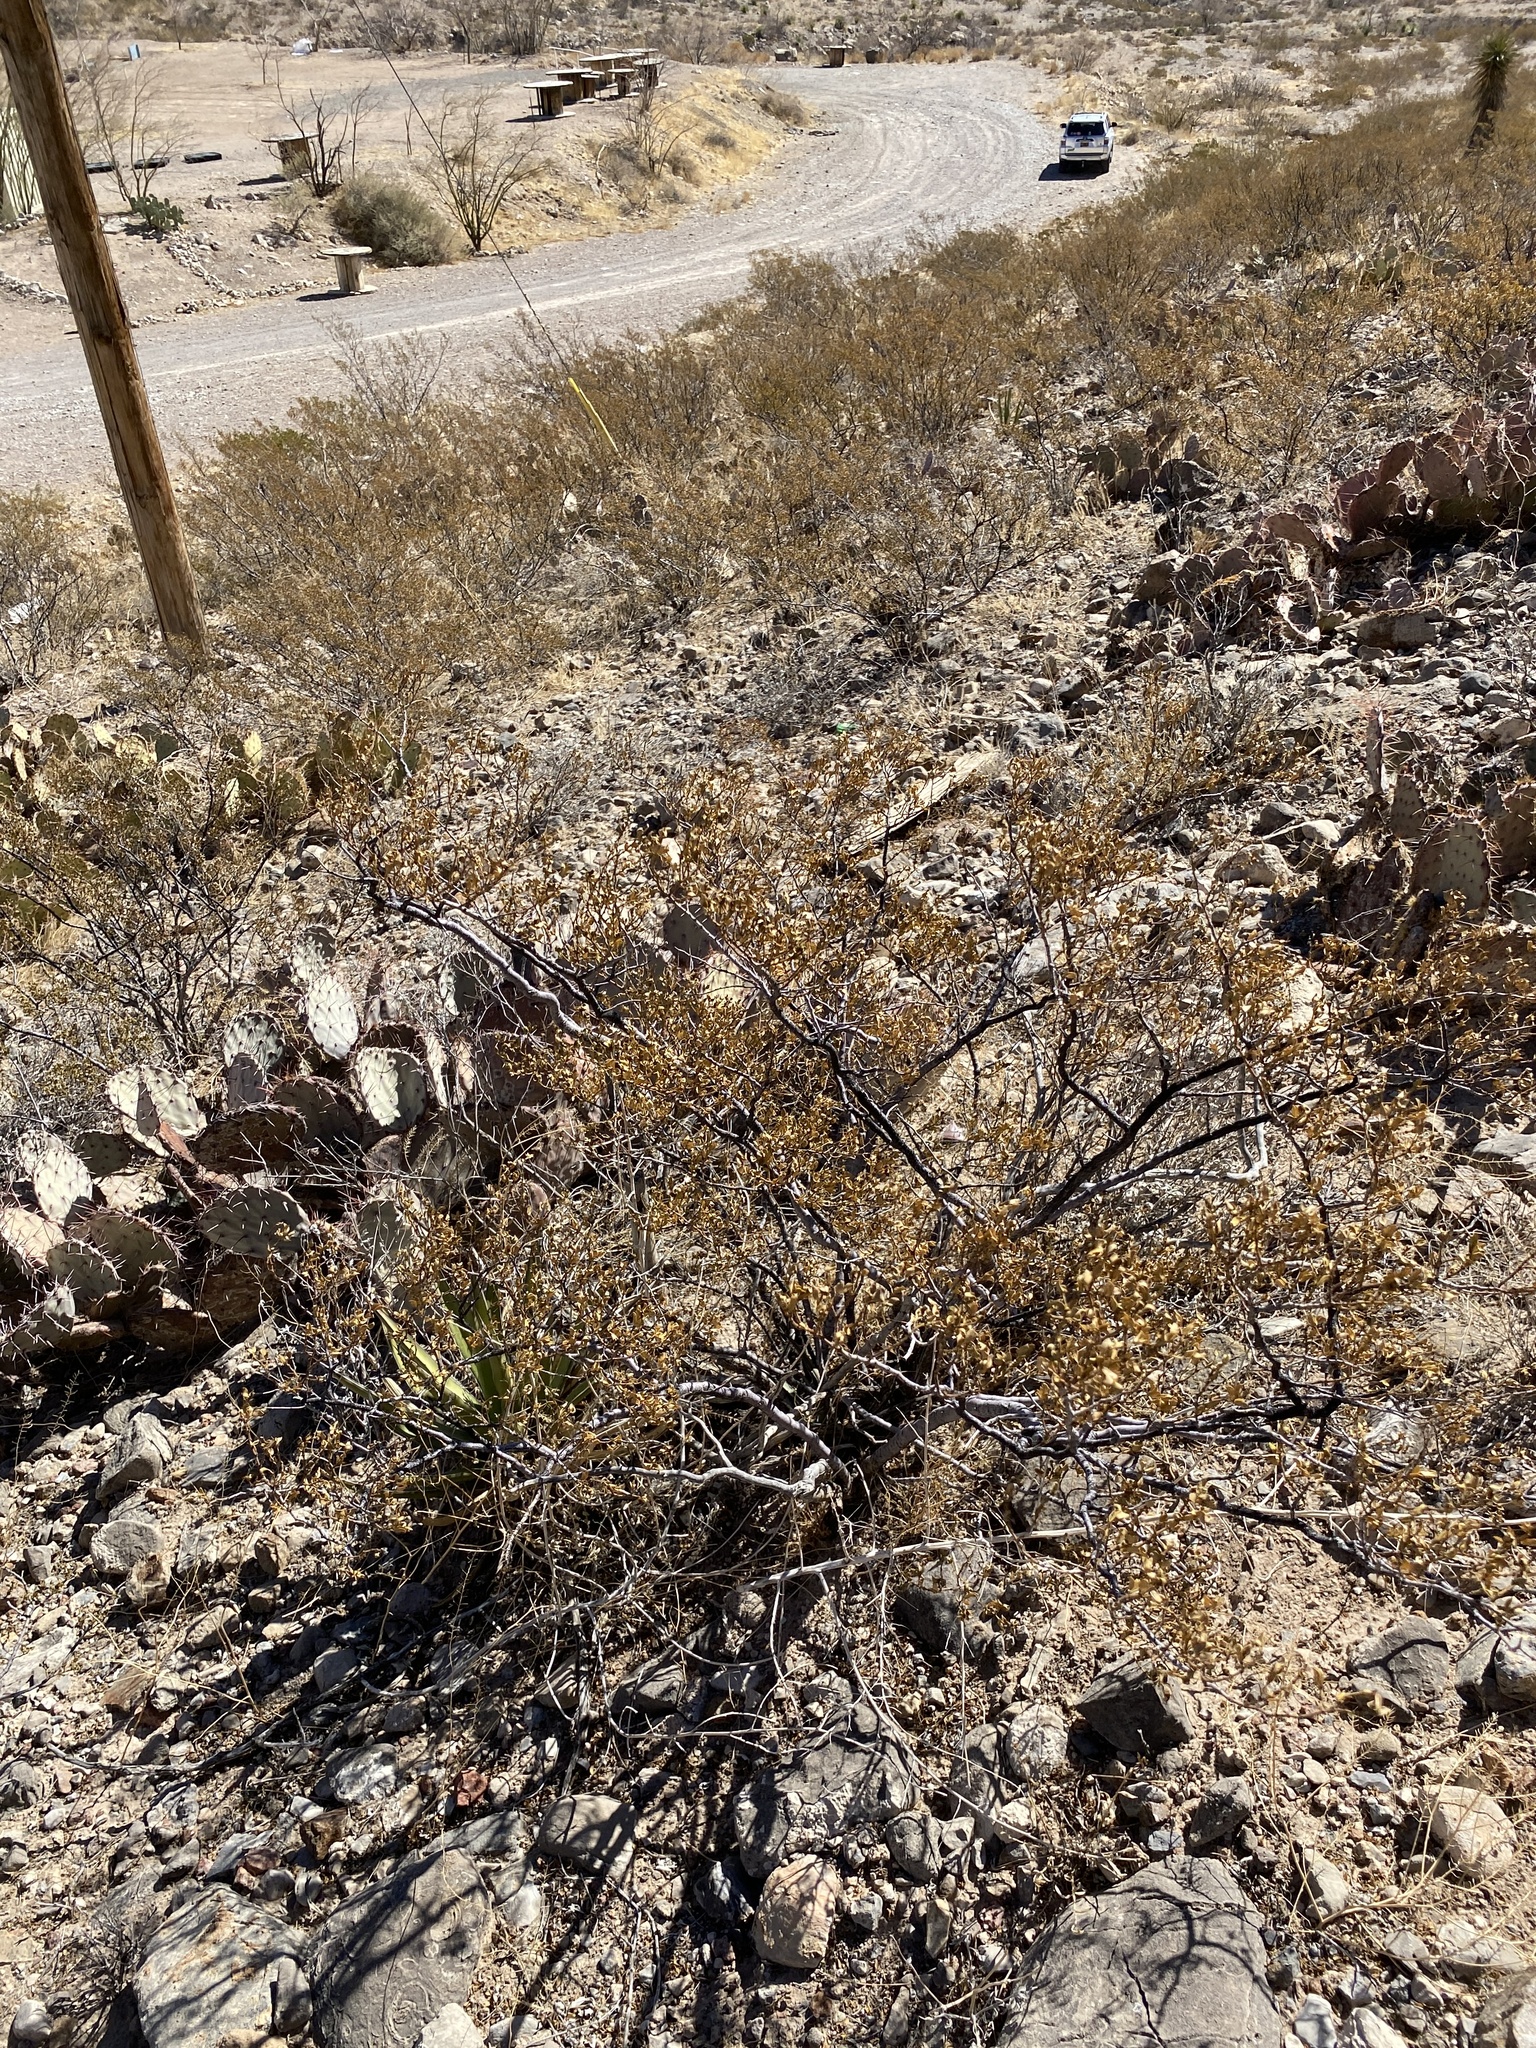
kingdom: Plantae
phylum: Tracheophyta
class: Magnoliopsida
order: Zygophyllales
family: Zygophyllaceae
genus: Larrea
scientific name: Larrea tridentata
